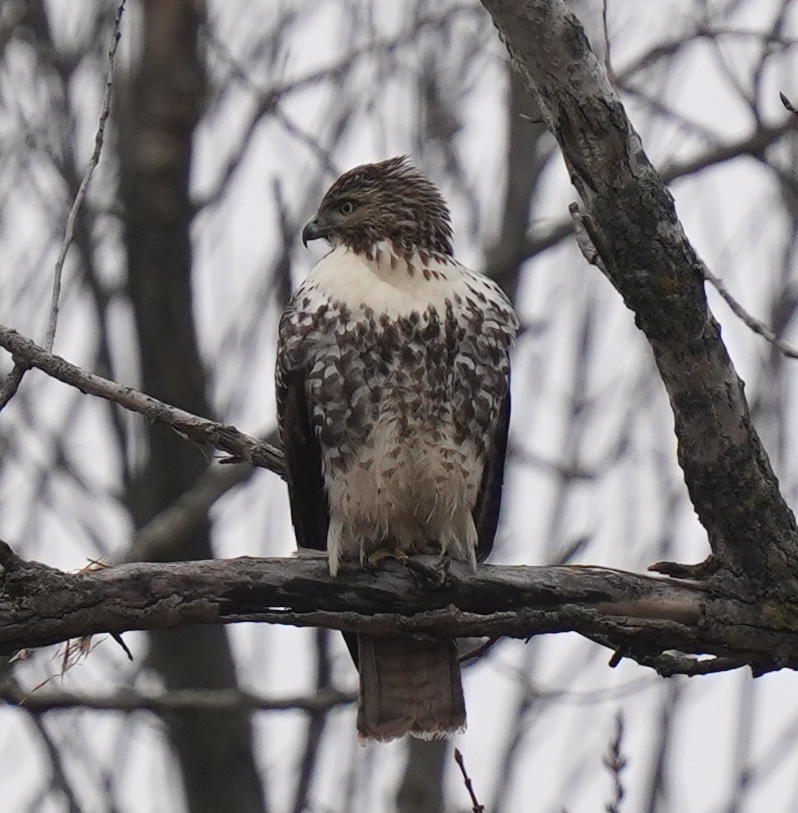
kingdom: Animalia
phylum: Chordata
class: Aves
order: Accipitriformes
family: Accipitridae
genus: Buteo
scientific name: Buteo jamaicensis
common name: Red-tailed hawk
